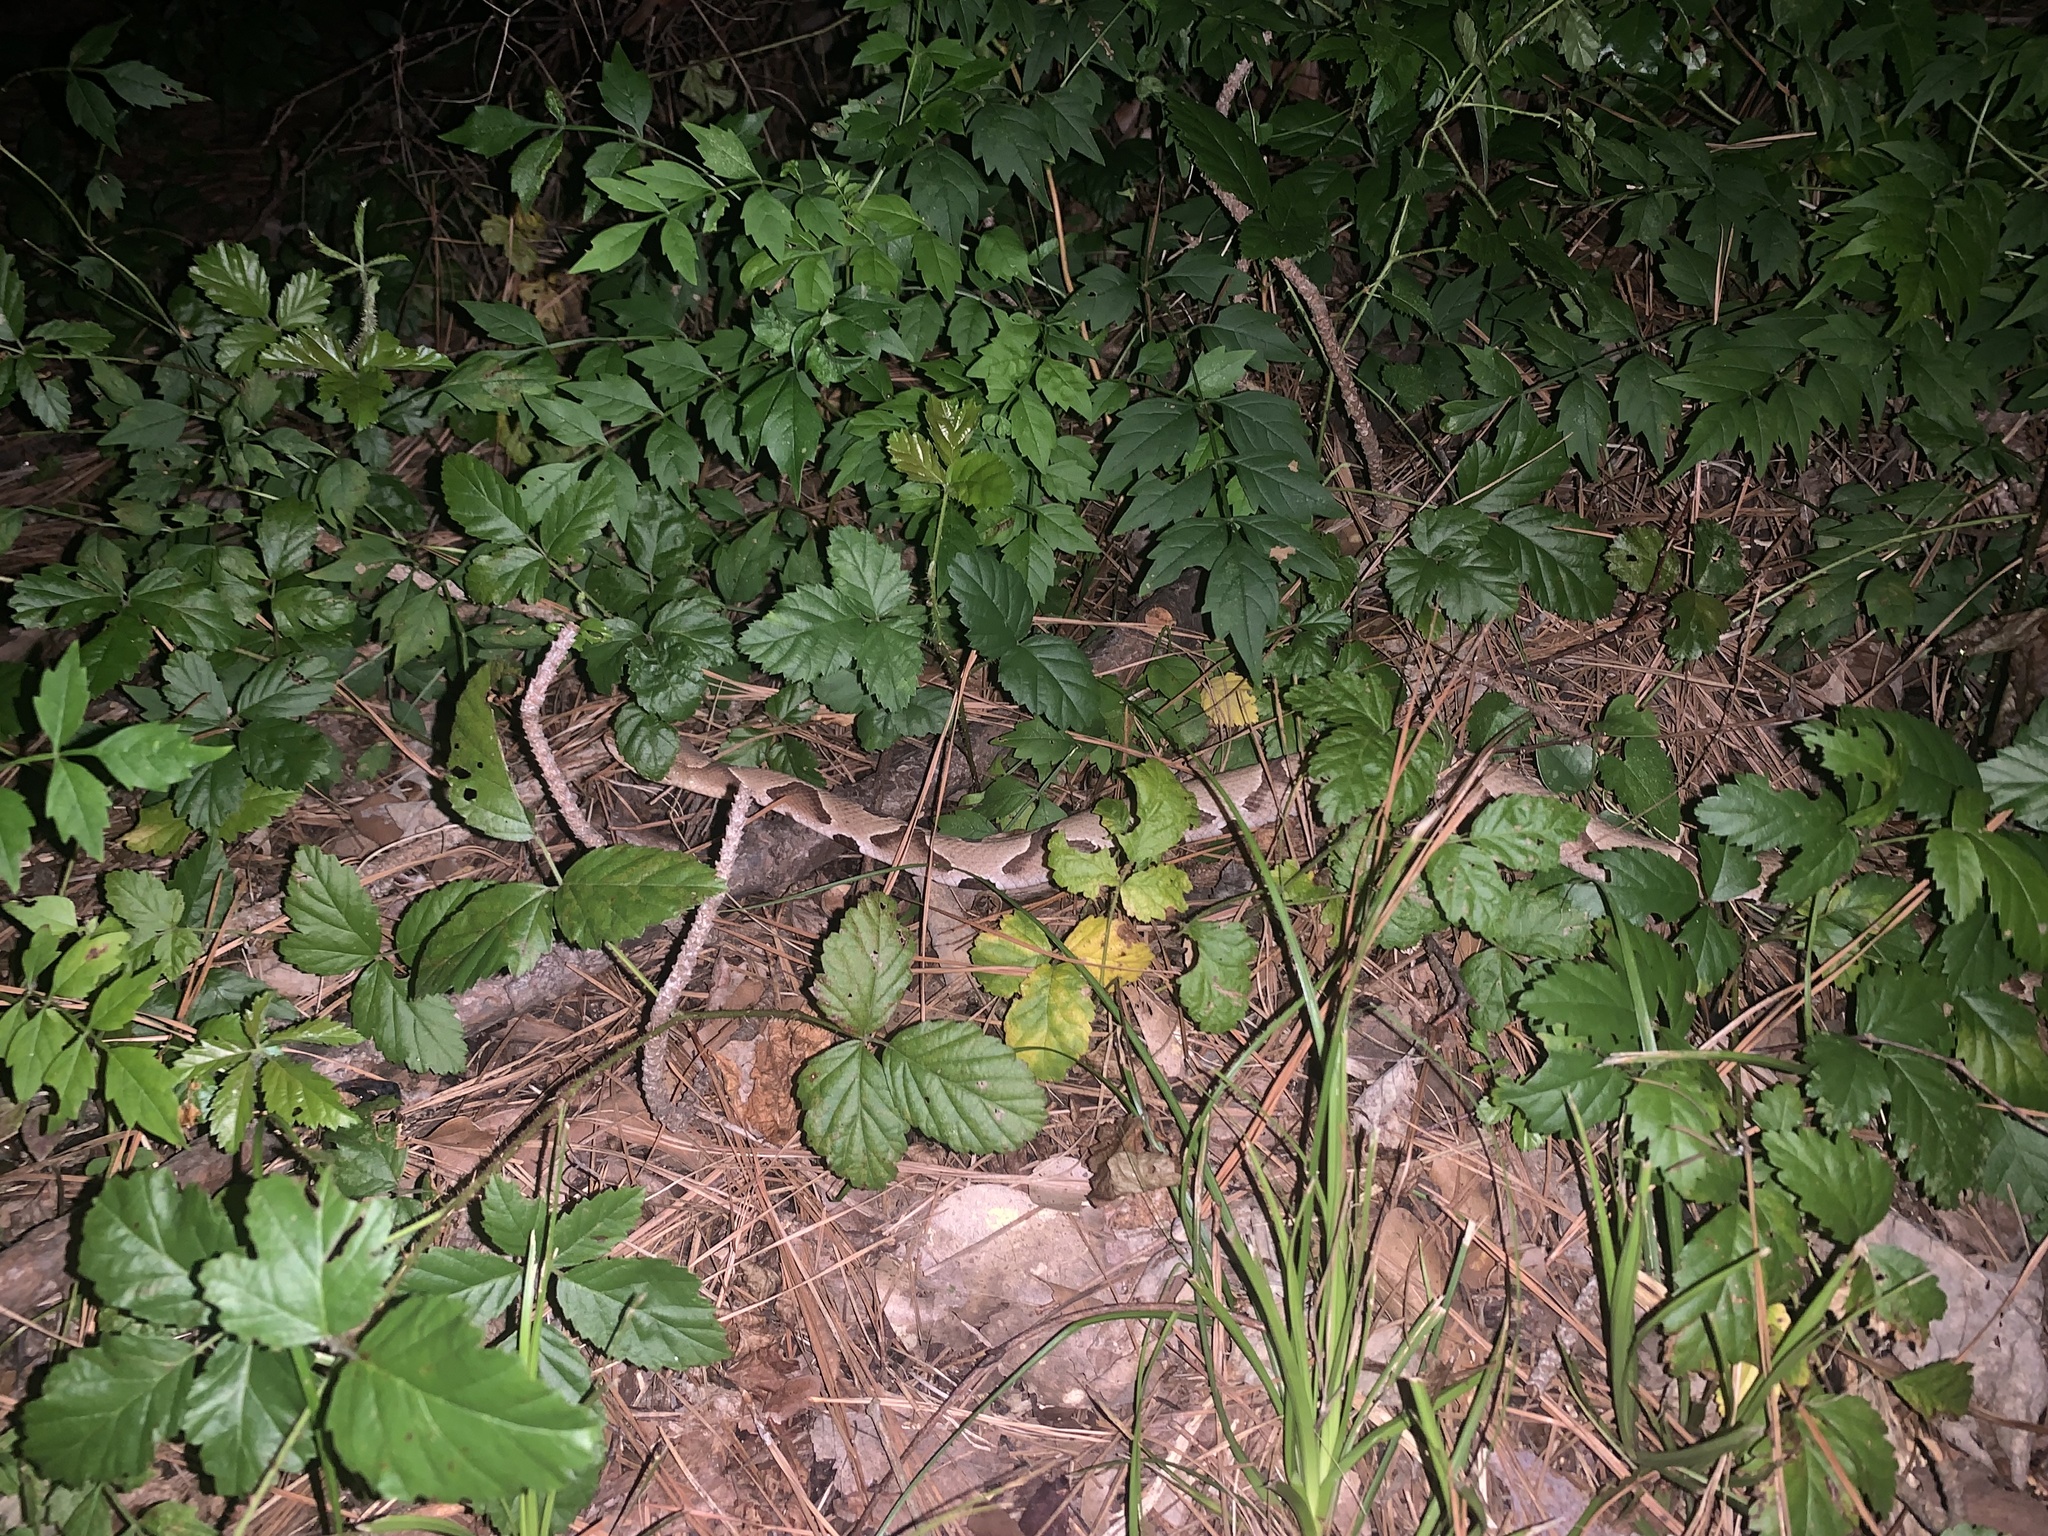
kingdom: Animalia
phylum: Chordata
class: Squamata
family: Viperidae
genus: Agkistrodon
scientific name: Agkistrodon contortrix
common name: Northern copperhead
